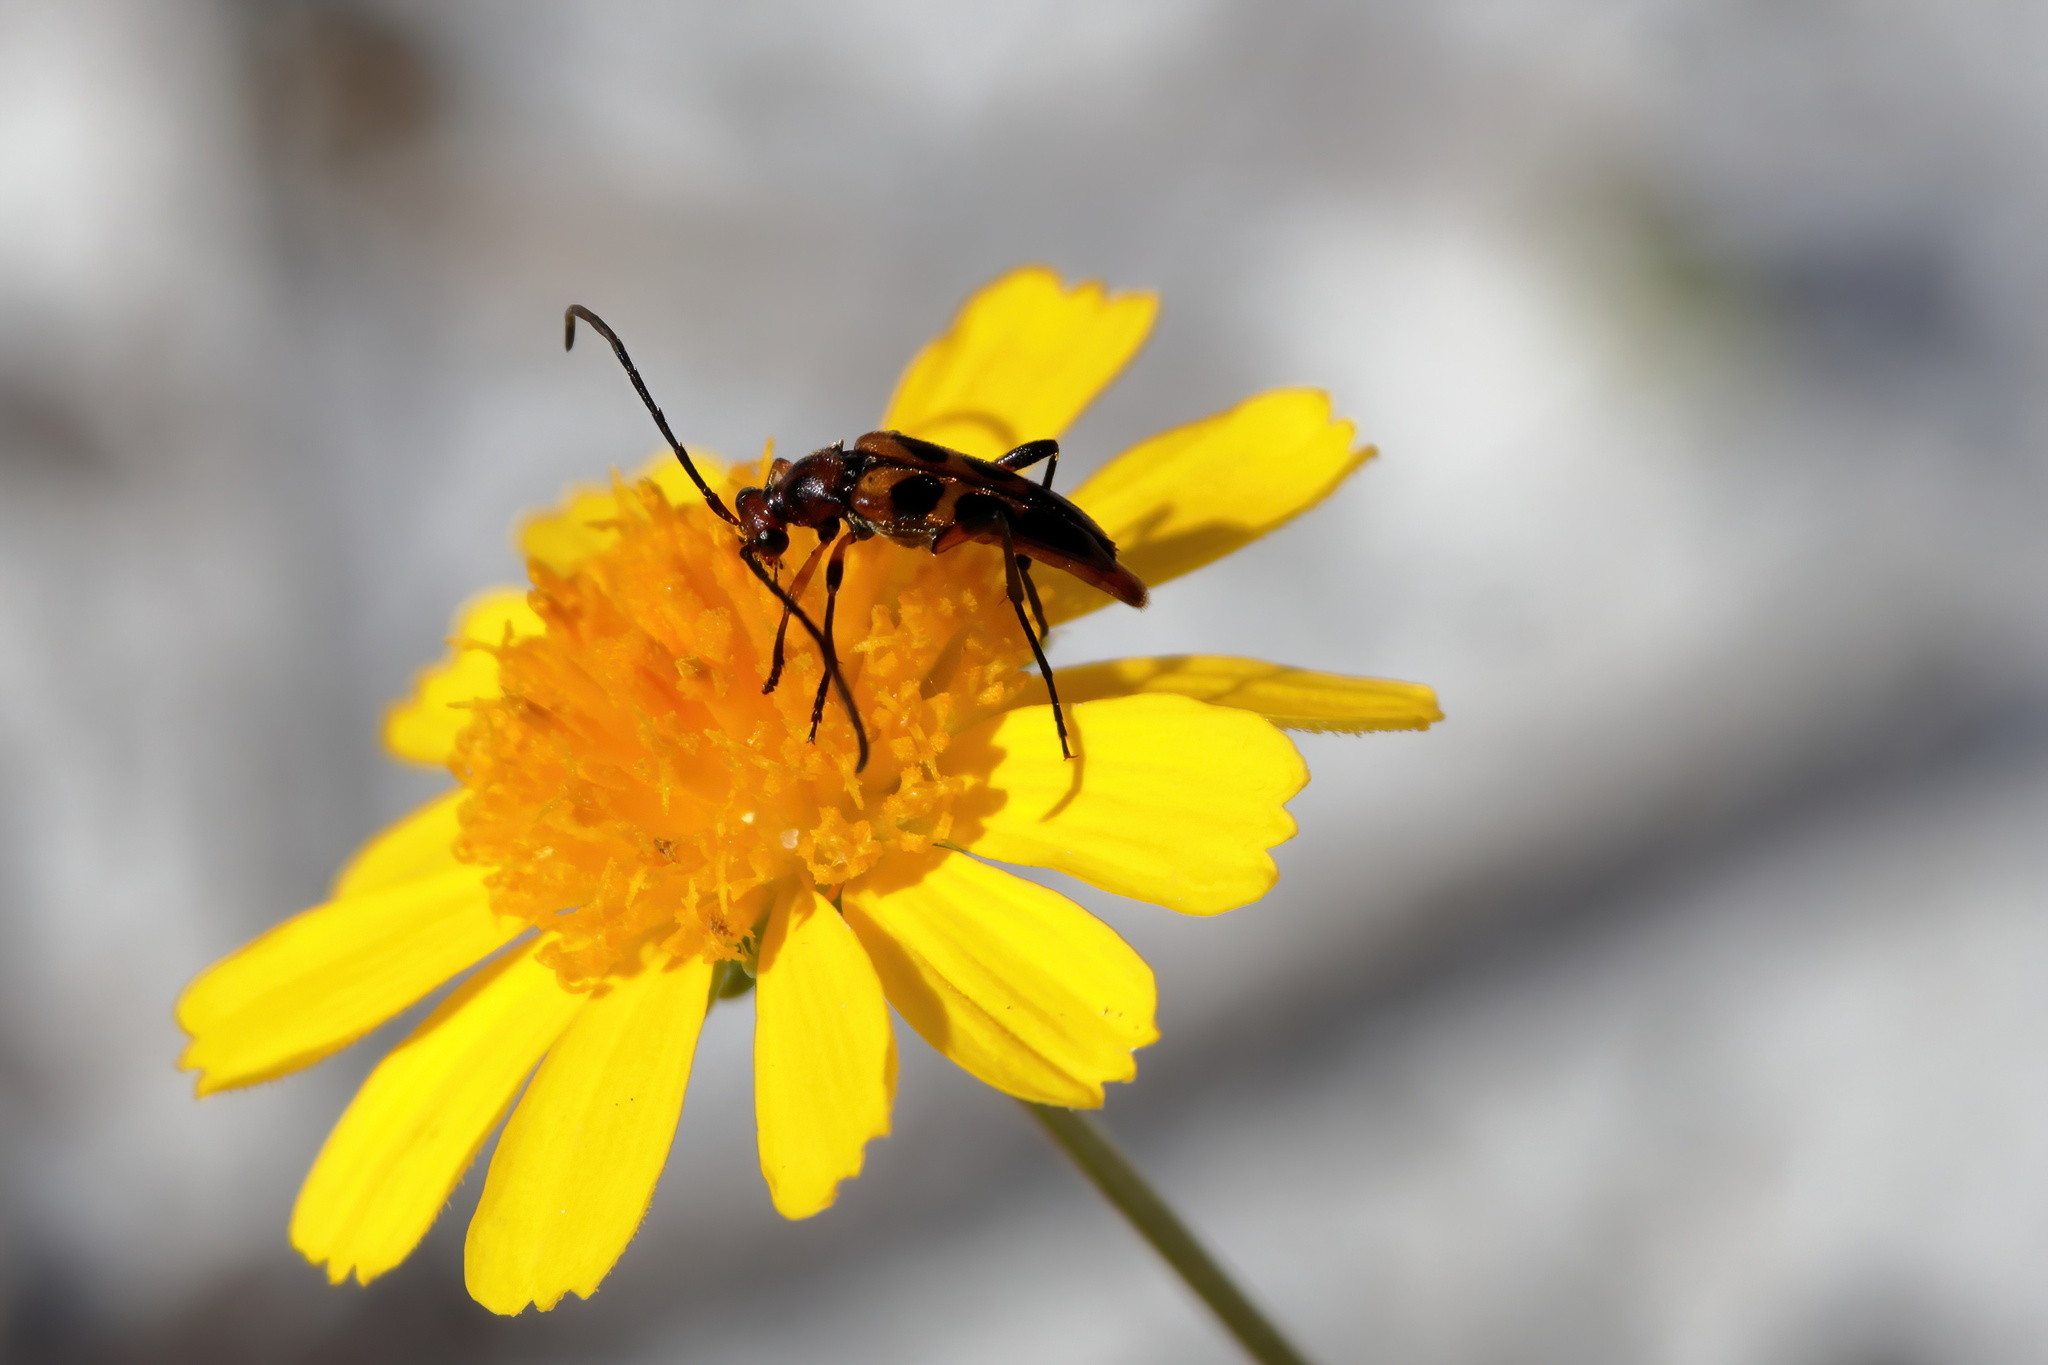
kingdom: Animalia
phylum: Arthropoda
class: Insecta
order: Coleoptera
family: Cerambycidae
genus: Strangalia
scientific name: Strangalia sexnotata
